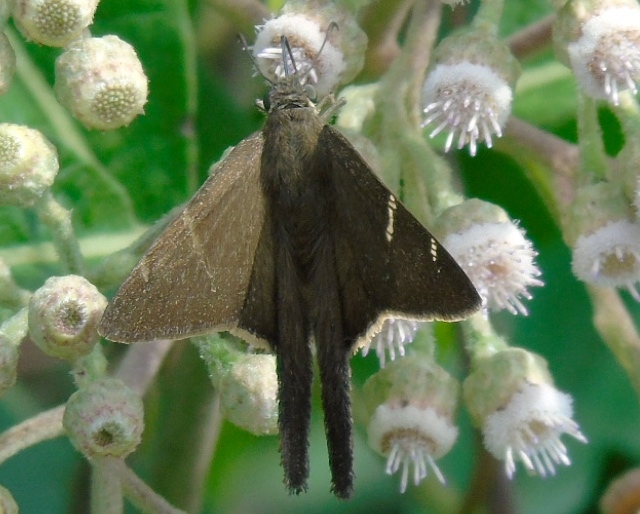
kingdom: Animalia
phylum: Arthropoda
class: Insecta
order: Lepidoptera
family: Hesperiidae
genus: Urbanus
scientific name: Urbanus procne
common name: Brown longtail
